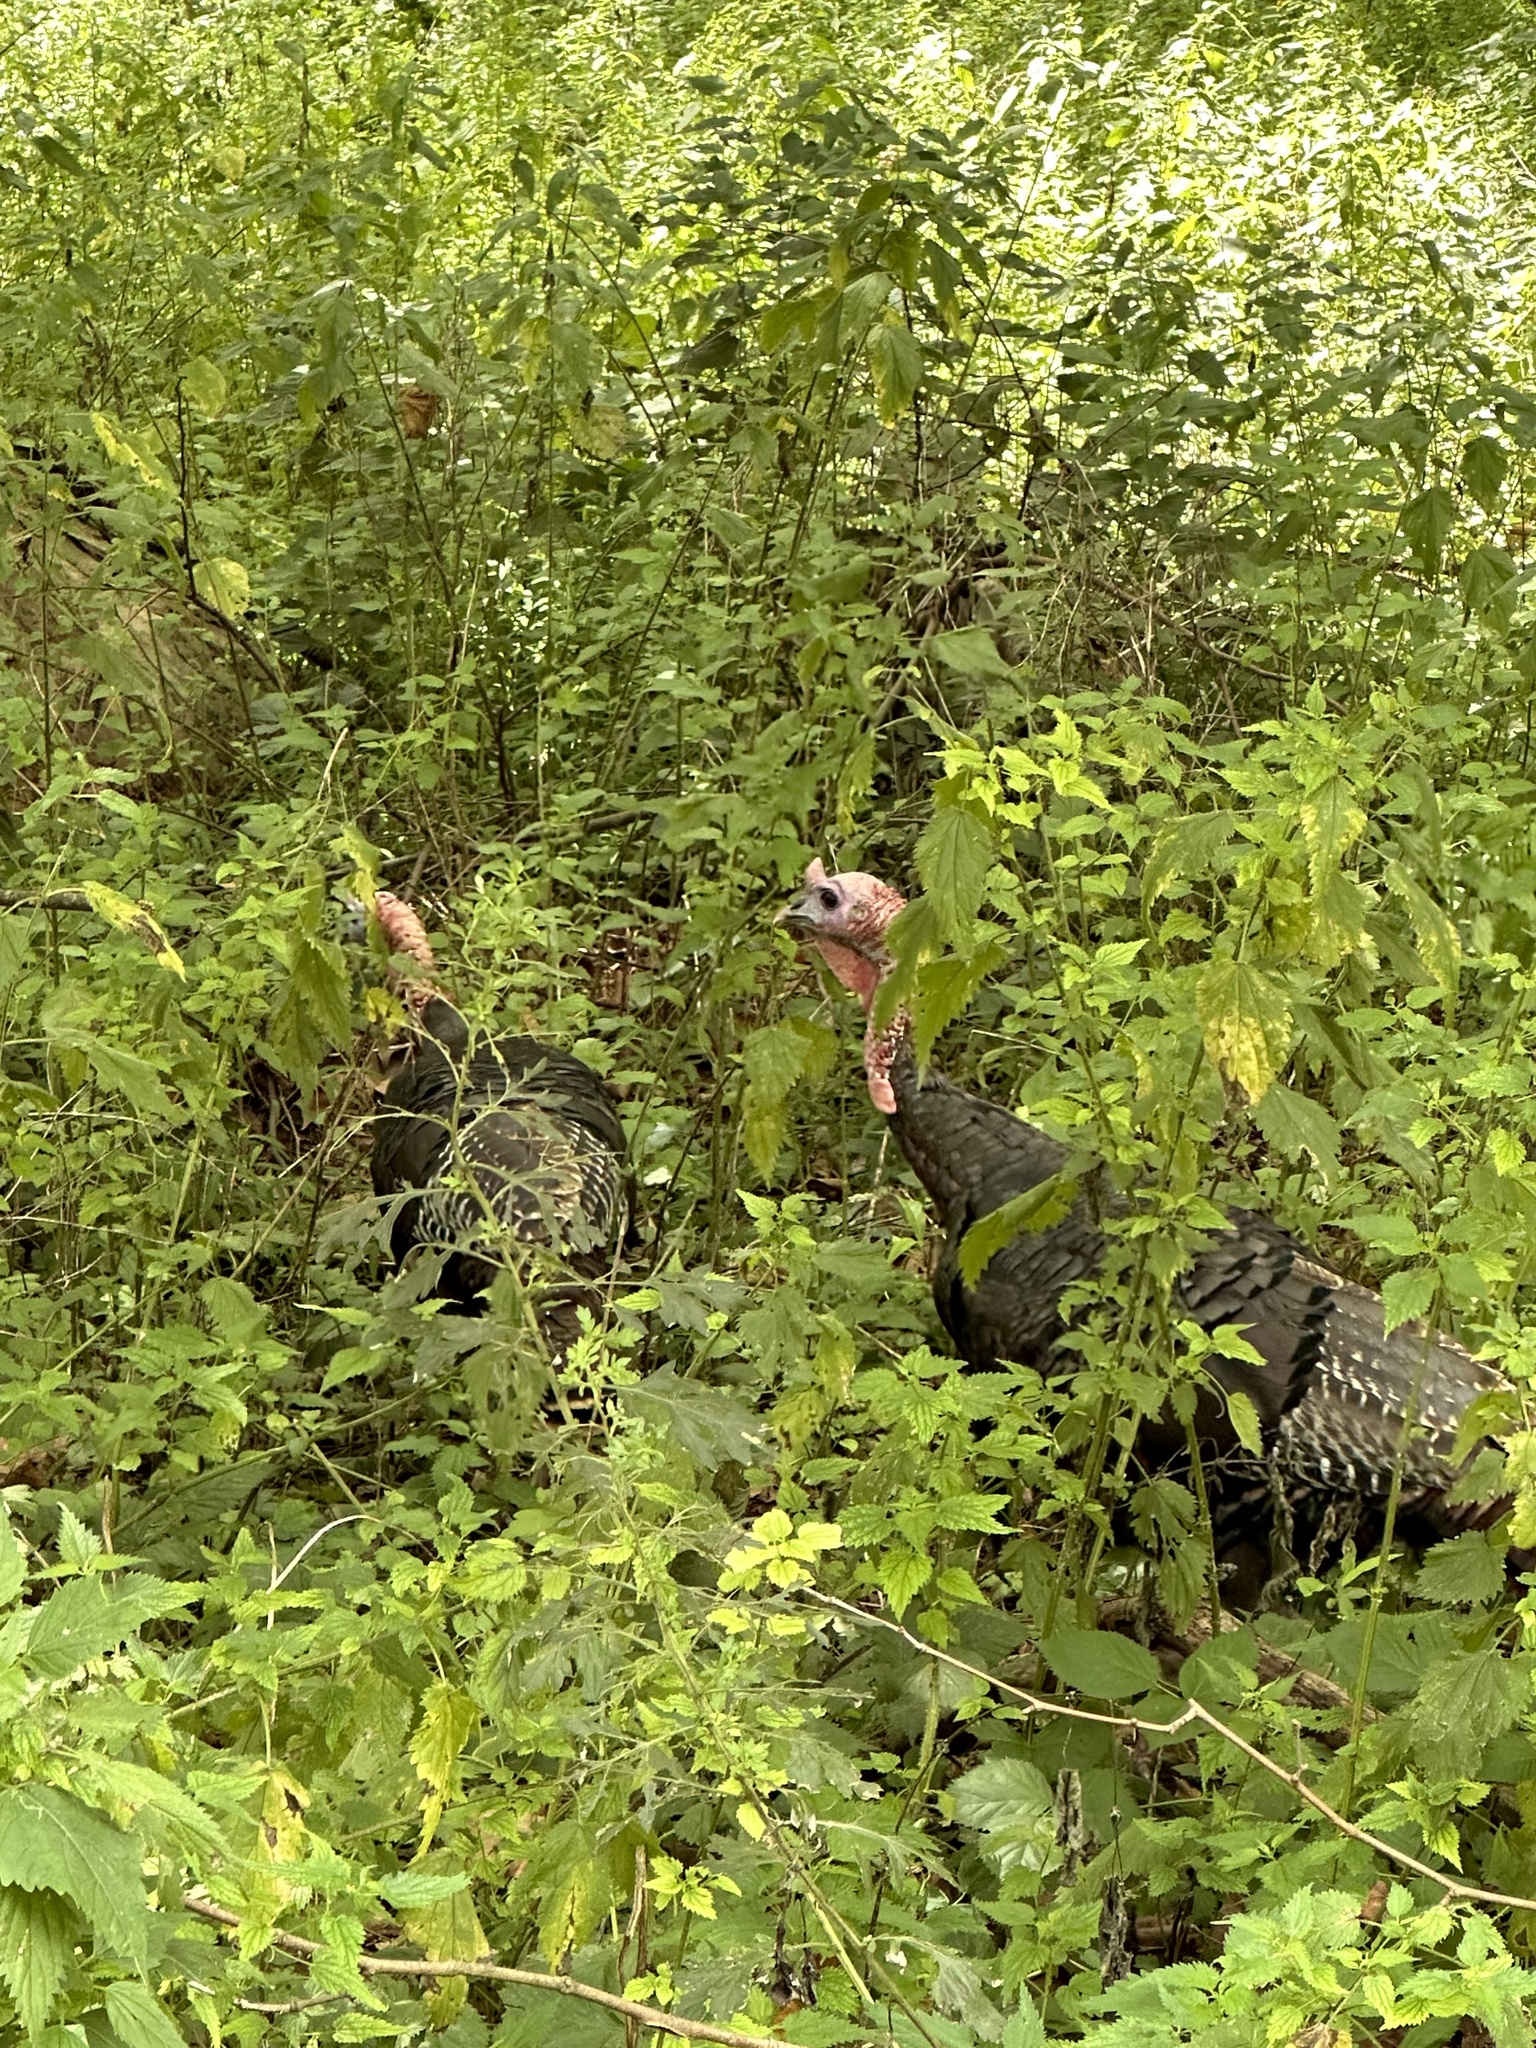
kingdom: Animalia
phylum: Chordata
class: Aves
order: Galliformes
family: Phasianidae
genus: Meleagris
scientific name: Meleagris gallopavo
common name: Wild turkey
